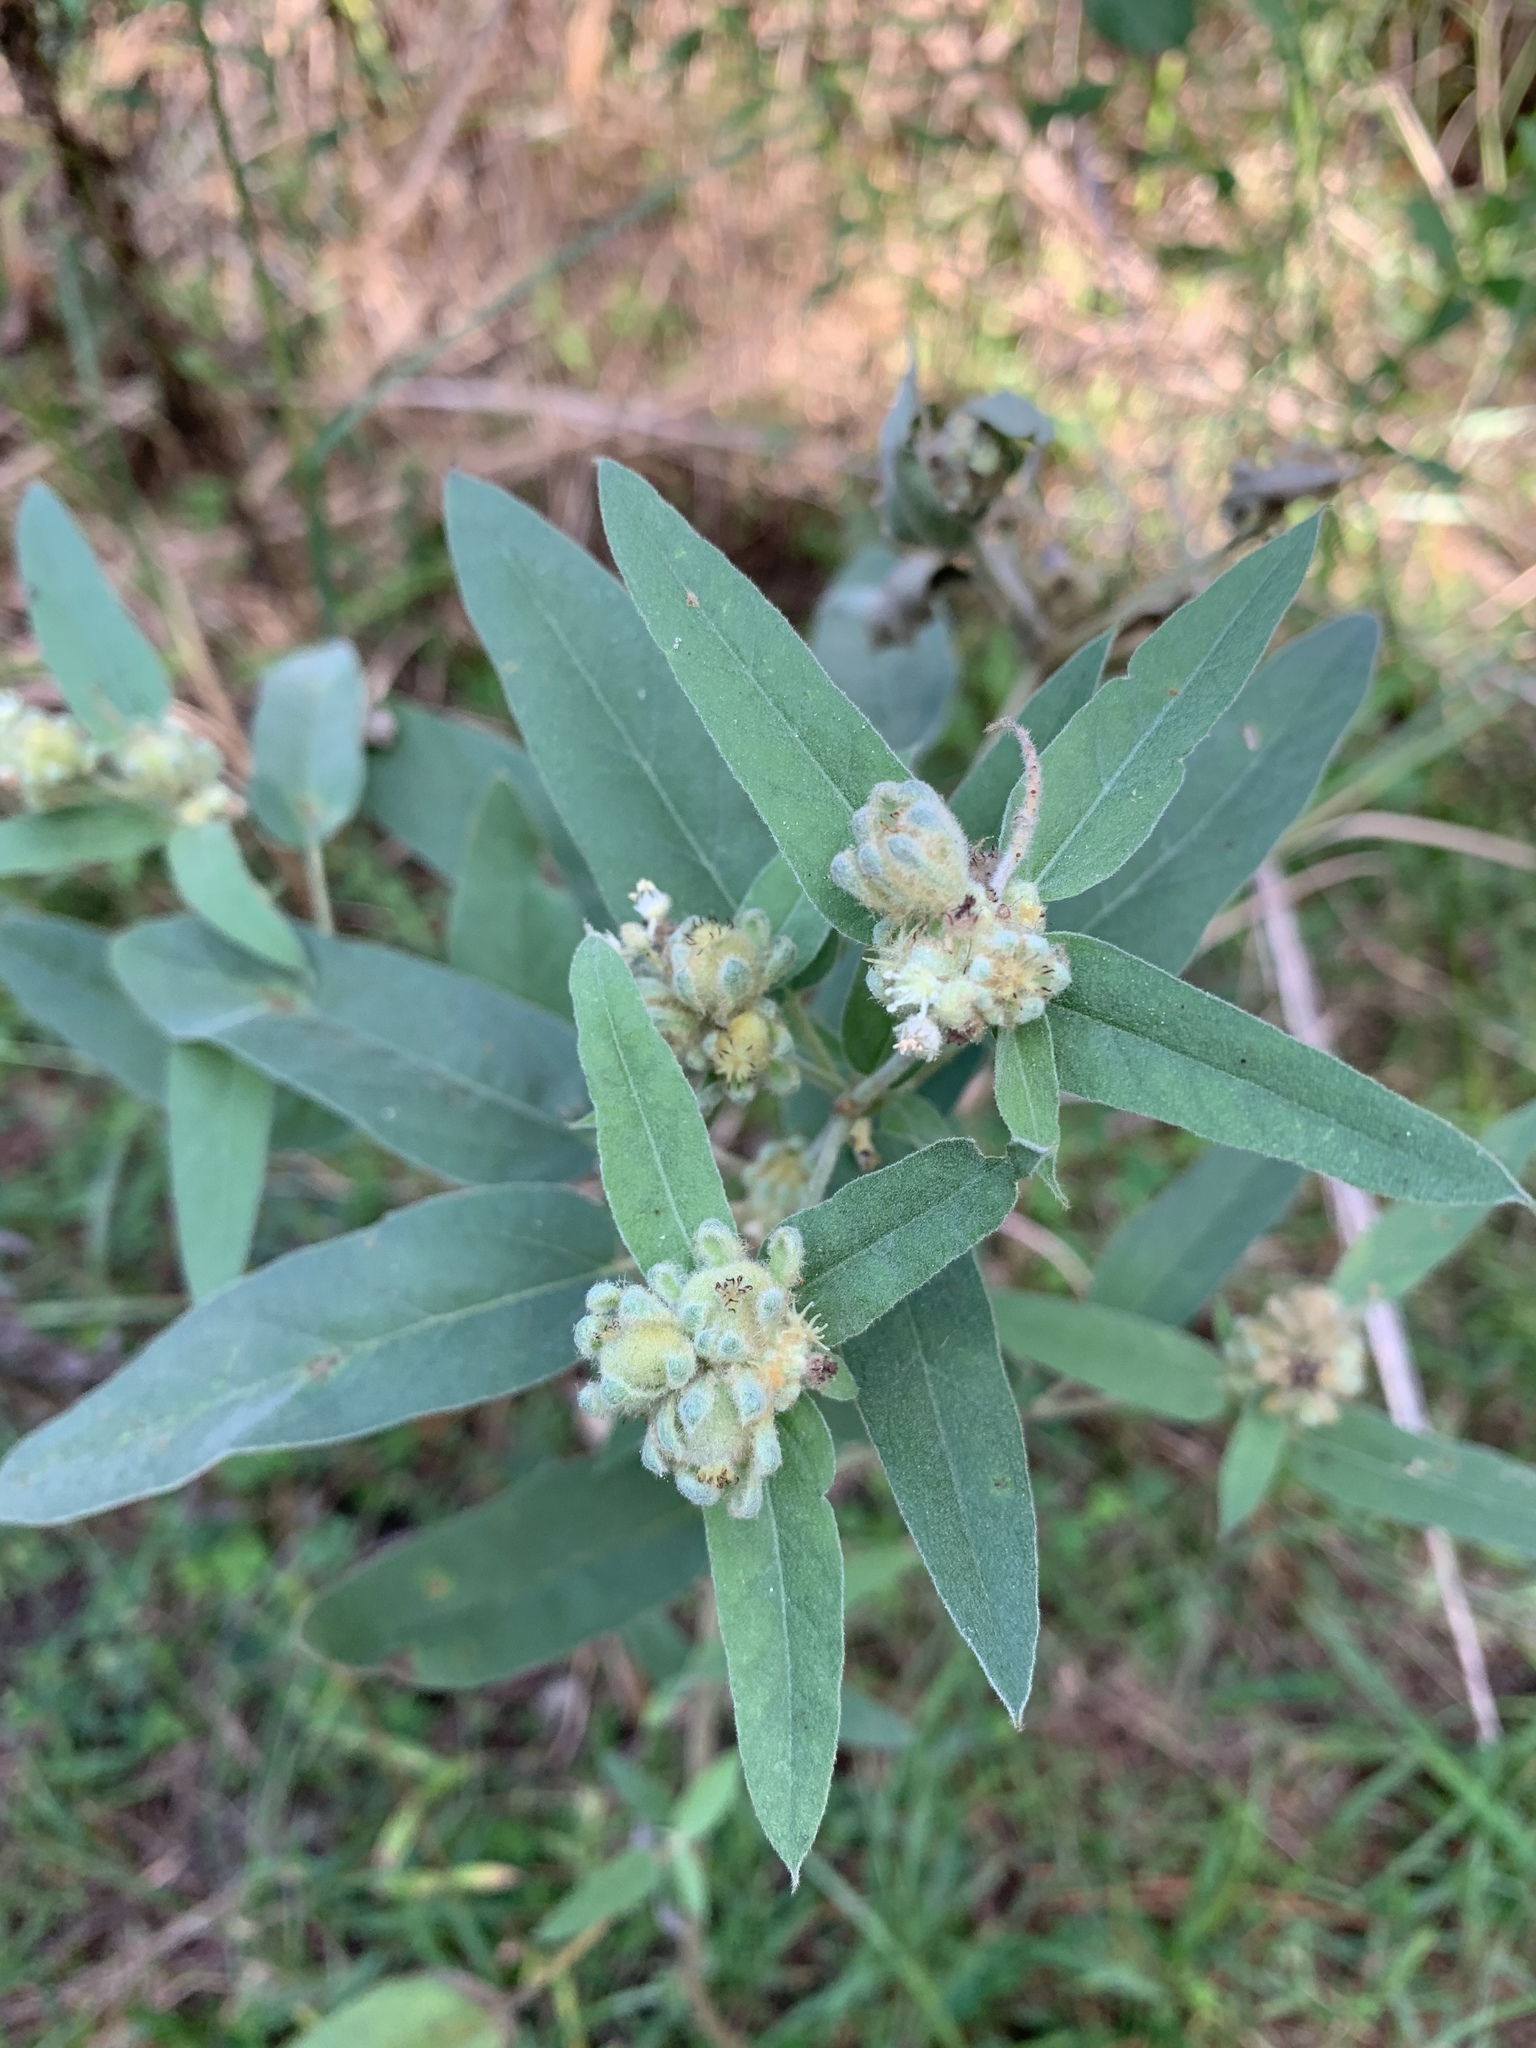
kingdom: Plantae
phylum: Tracheophyta
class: Magnoliopsida
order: Malpighiales
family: Euphorbiaceae
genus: Croton
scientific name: Croton lindheimeri
